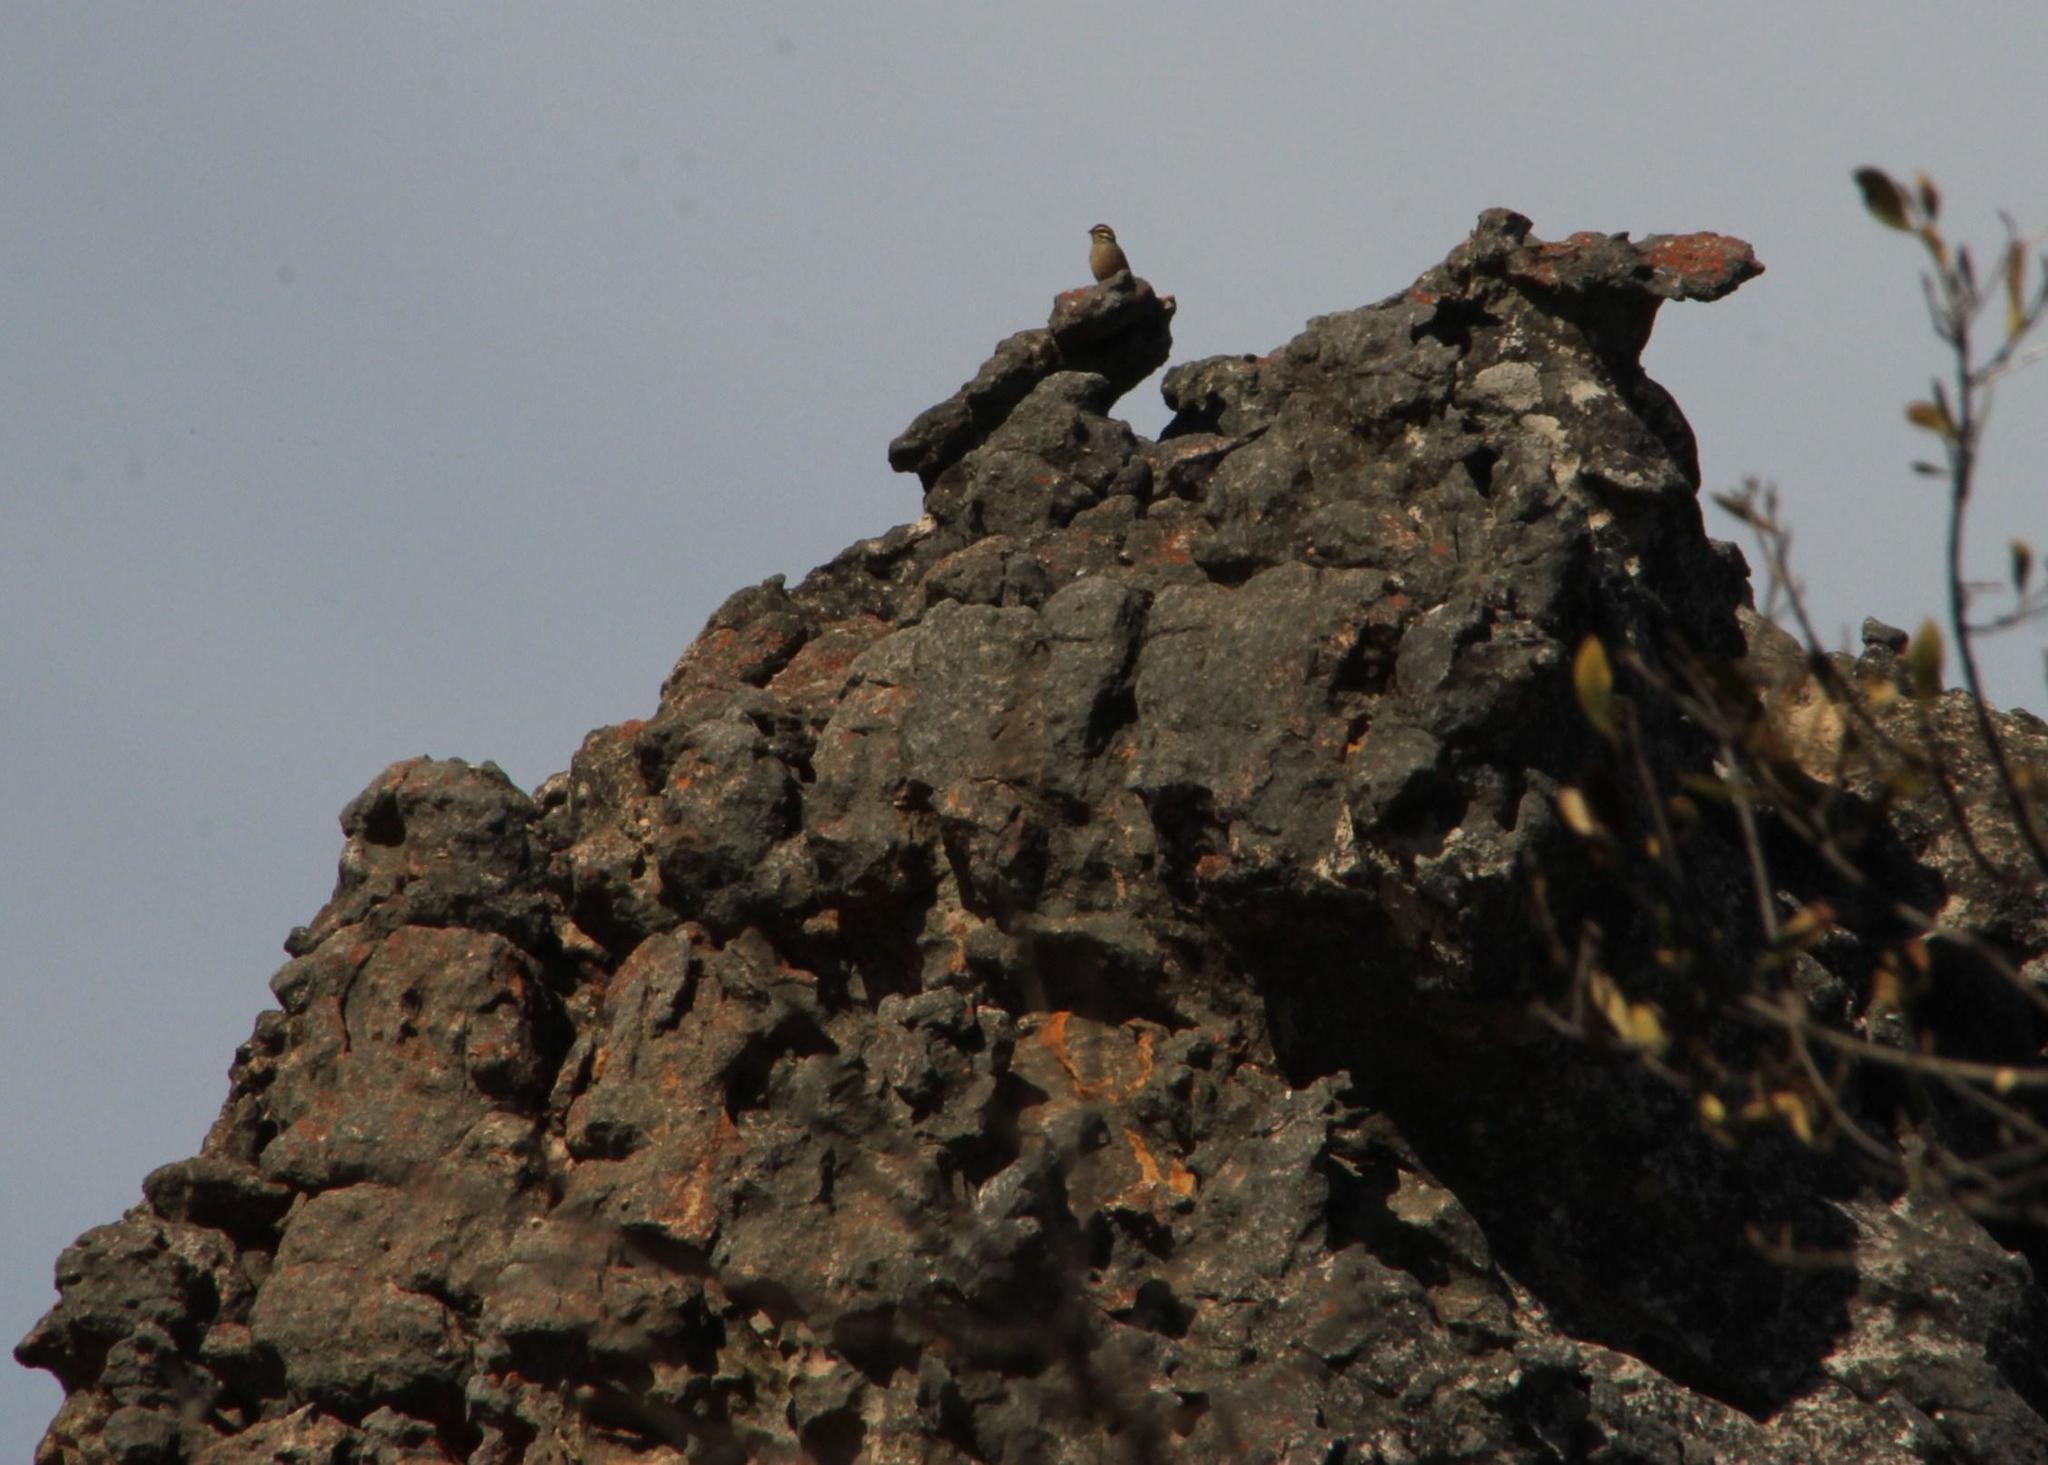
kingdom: Animalia
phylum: Chordata
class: Aves
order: Passeriformes
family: Emberizidae
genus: Emberiza
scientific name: Emberiza capensis
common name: Cape bunting
